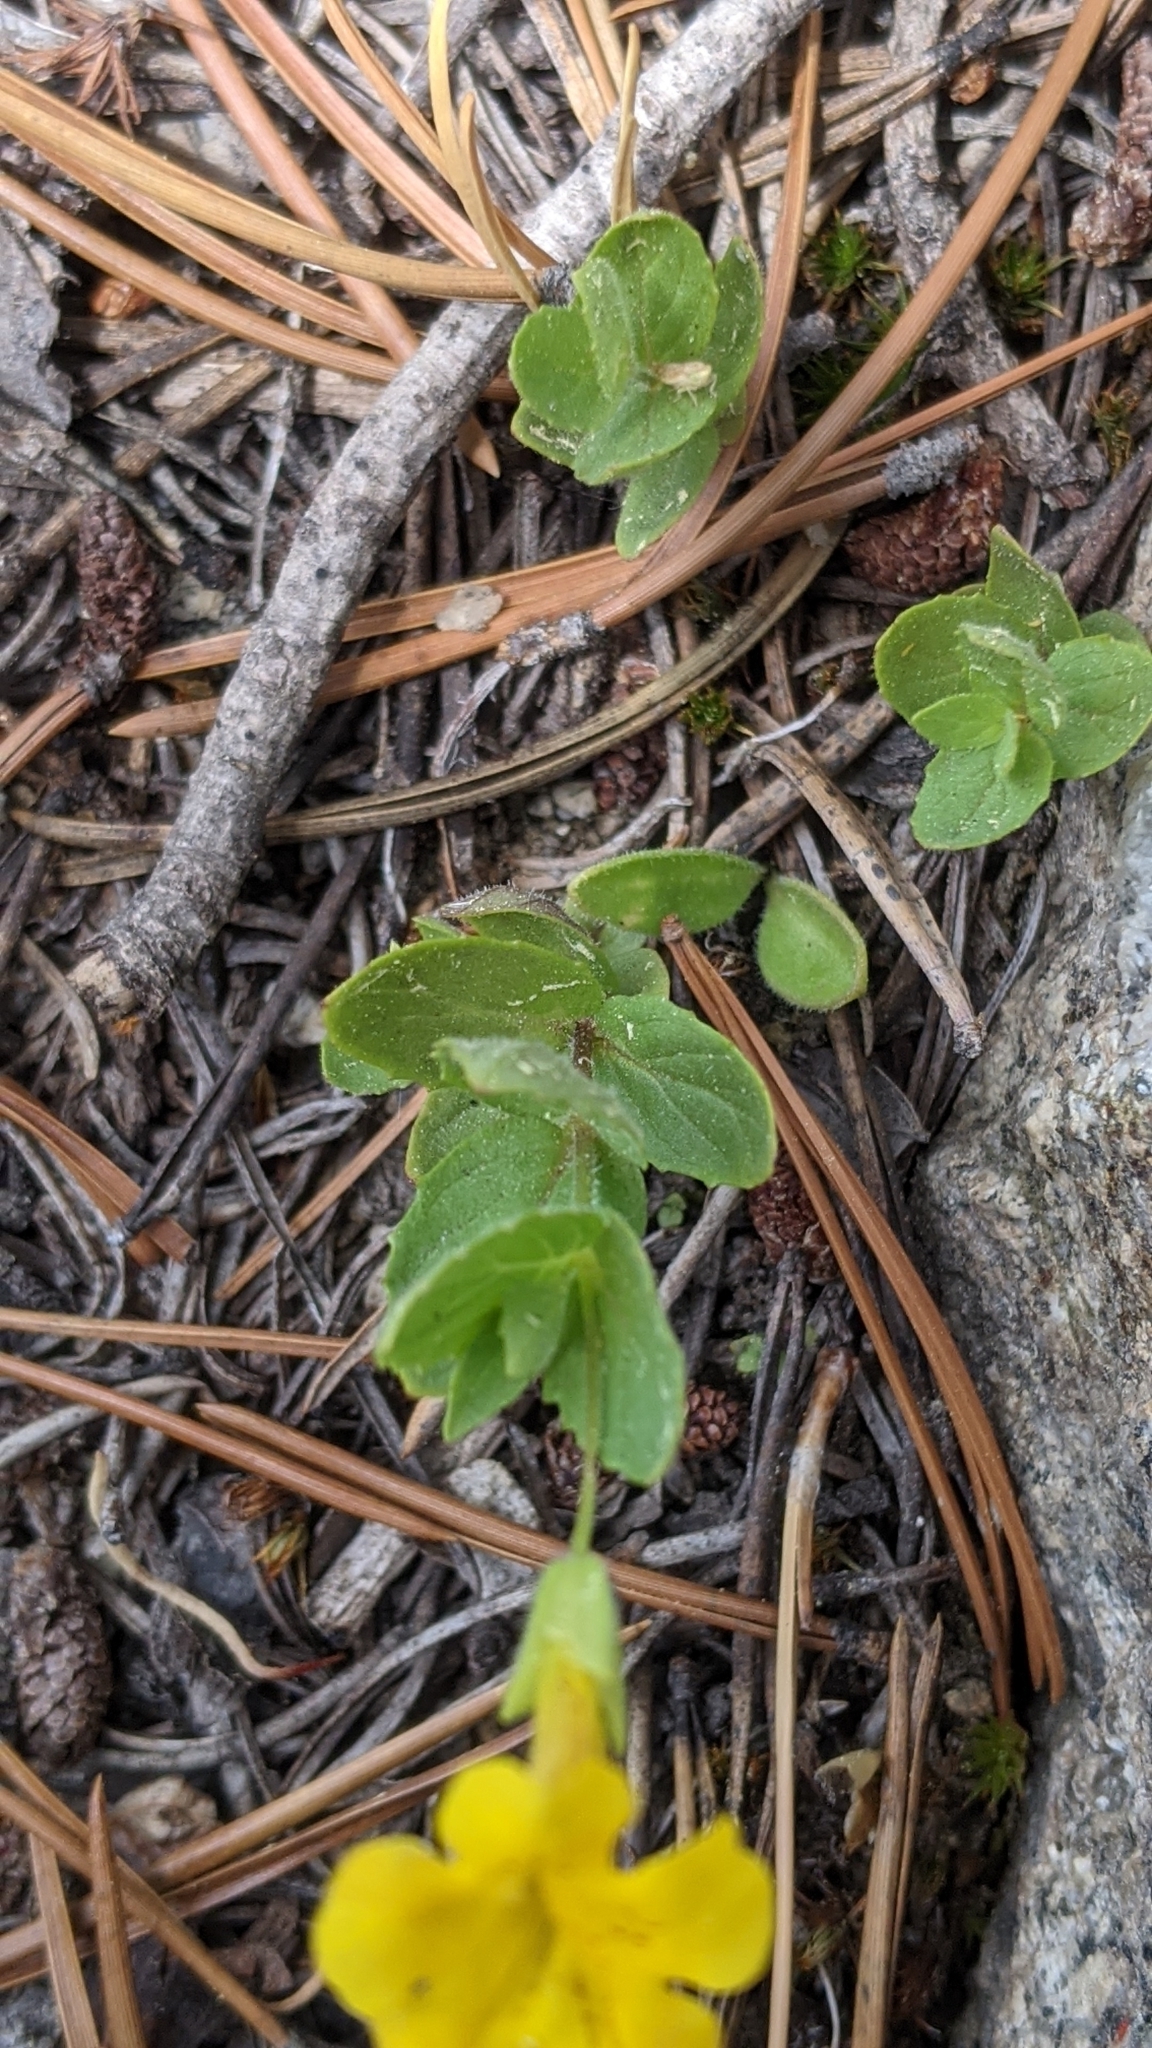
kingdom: Plantae
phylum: Tracheophyta
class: Magnoliopsida
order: Lamiales
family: Phrymaceae
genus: Erythranthe
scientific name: Erythranthe moschata
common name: Muskflower
